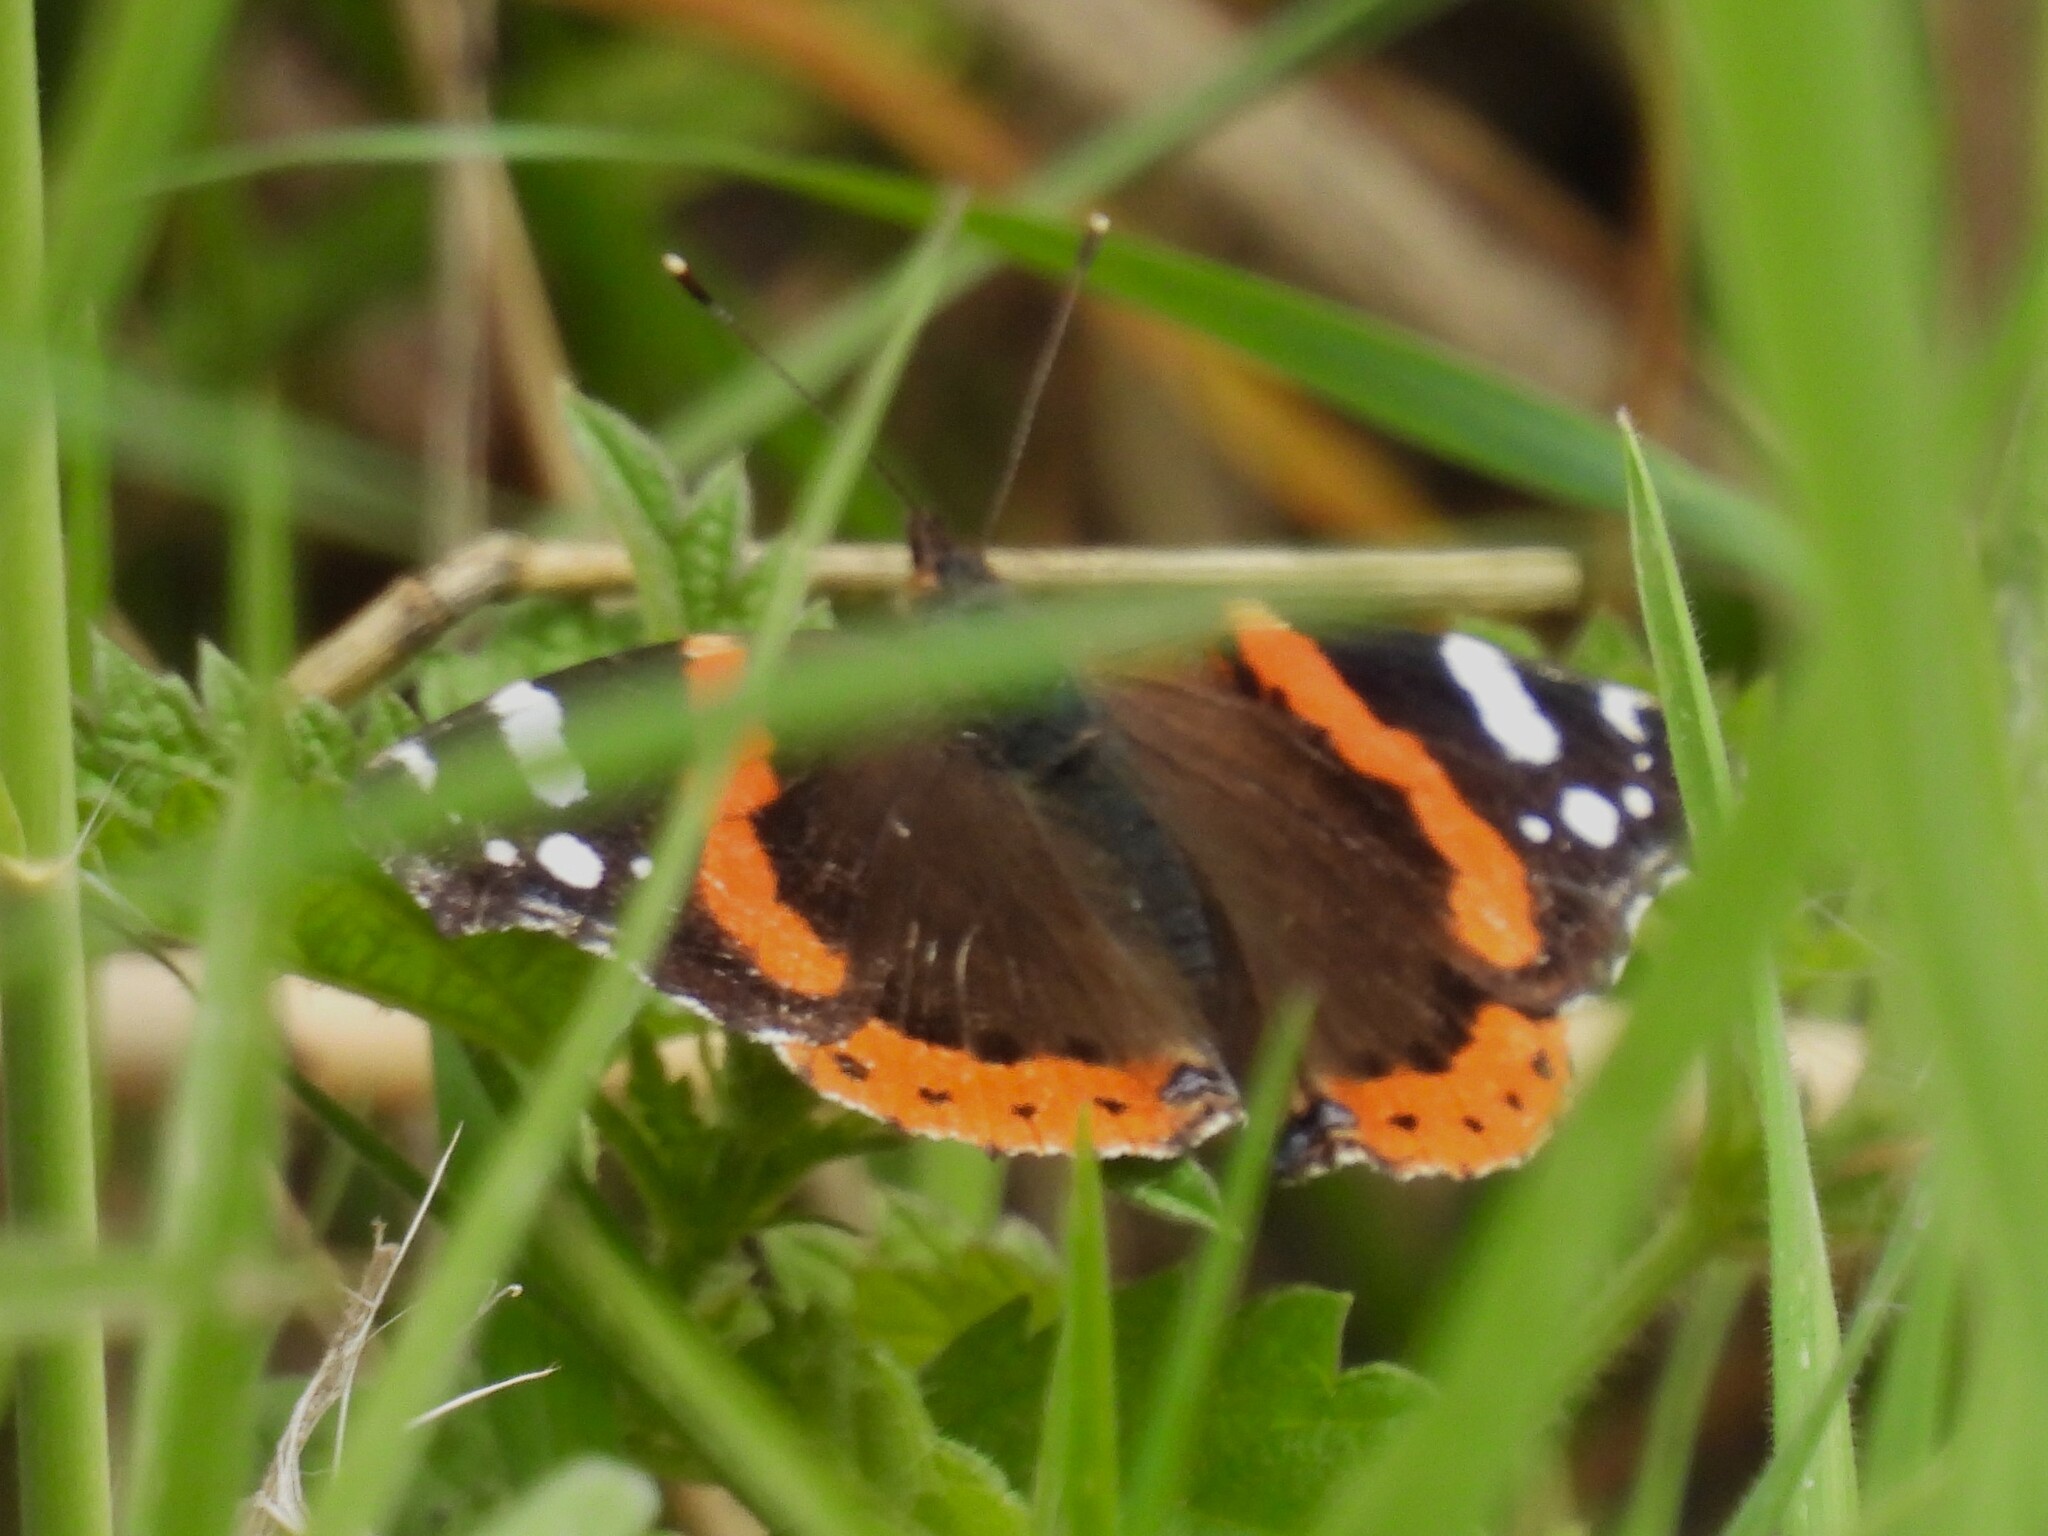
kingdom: Animalia
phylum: Arthropoda
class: Insecta
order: Lepidoptera
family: Nymphalidae
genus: Vanessa
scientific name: Vanessa atalanta
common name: Red admiral
